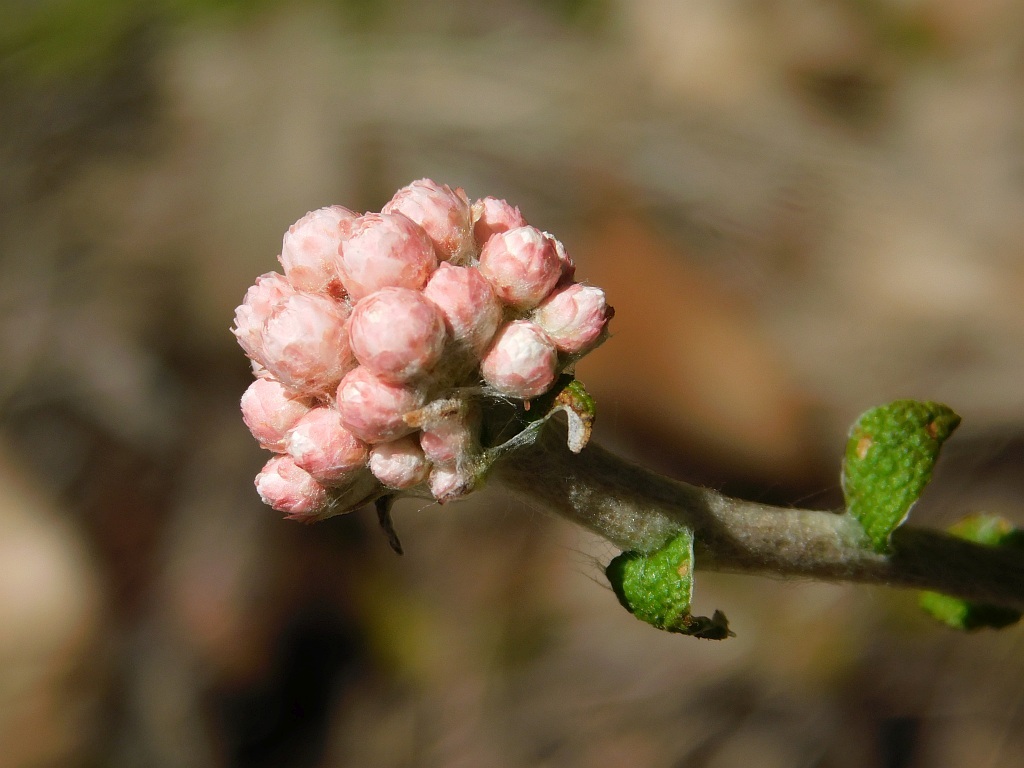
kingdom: Plantae
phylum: Tracheophyta
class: Magnoliopsida
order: Asterales
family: Asteraceae
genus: Helichrysum
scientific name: Helichrysum felinum
